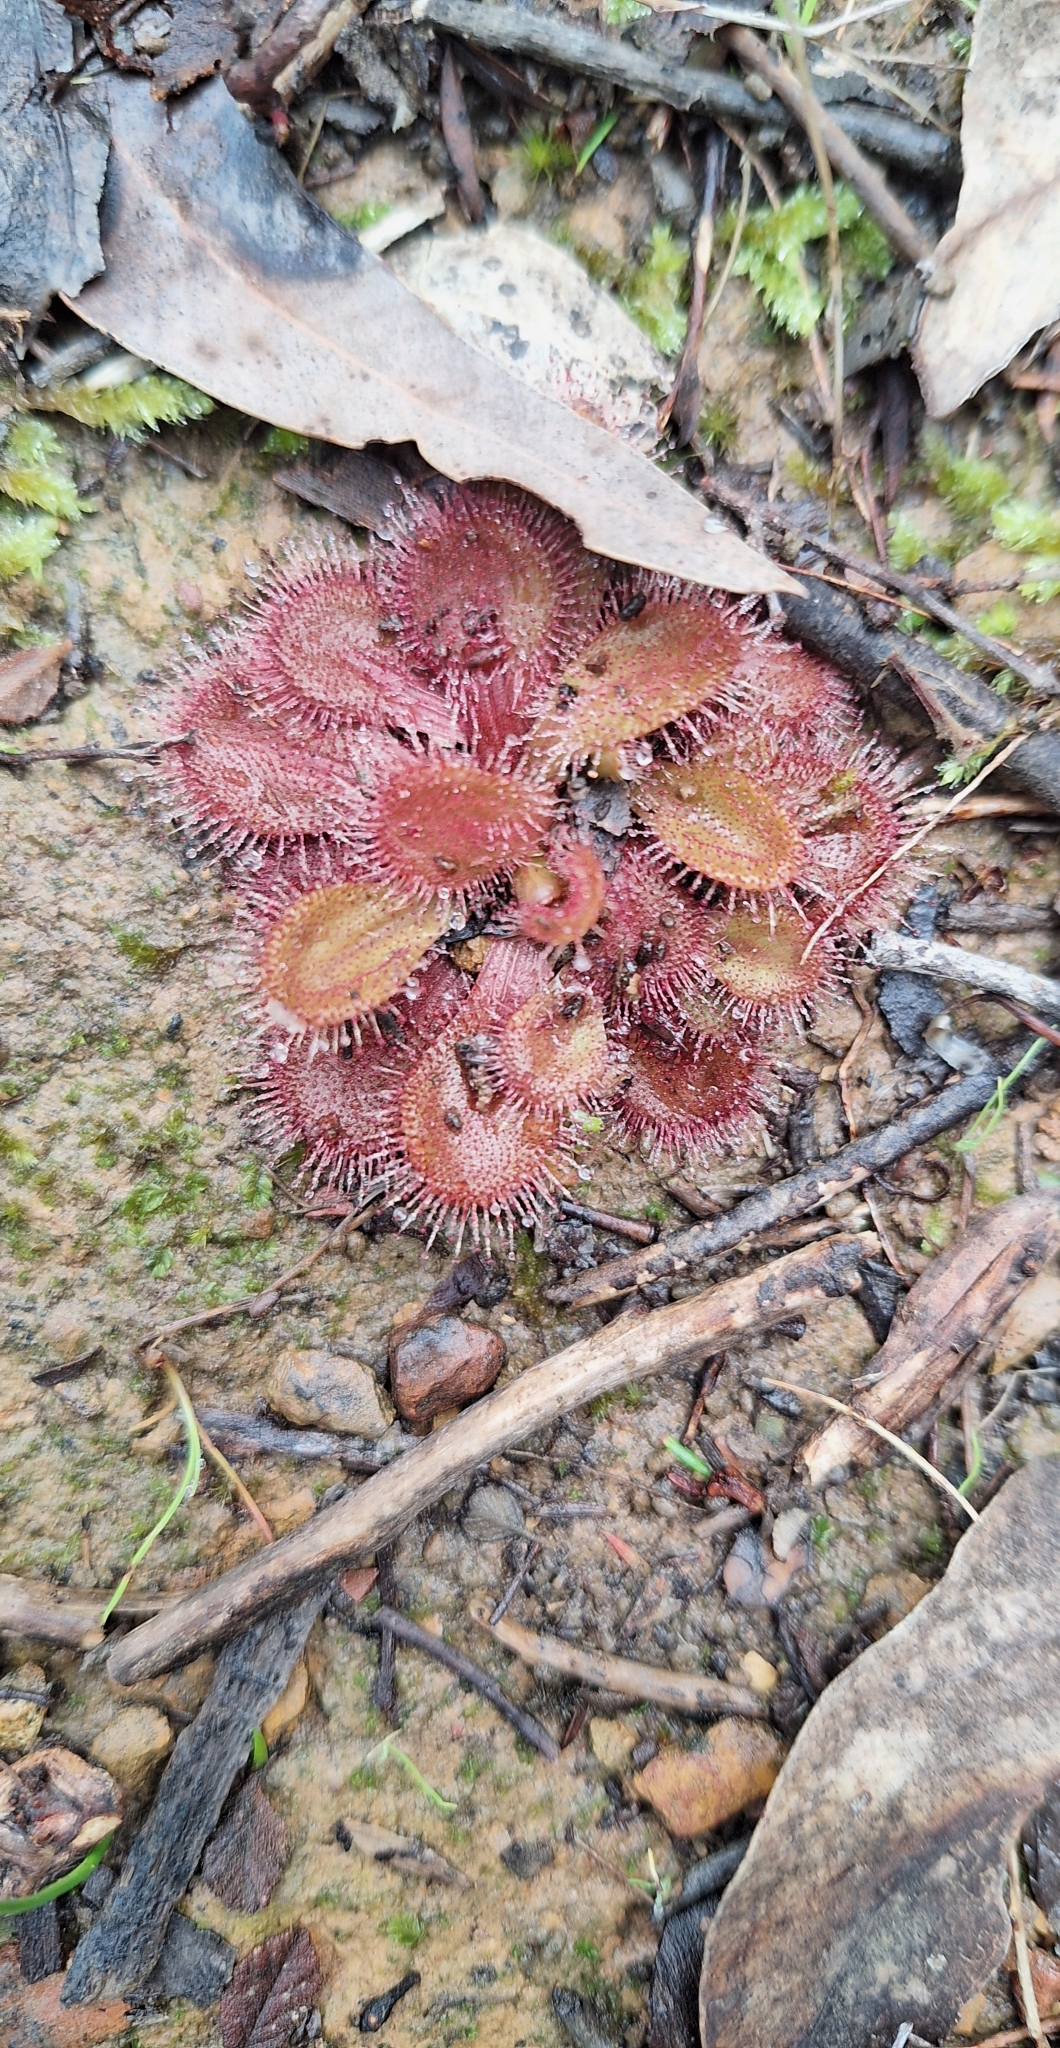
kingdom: Plantae
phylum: Tracheophyta
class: Magnoliopsida
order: Caryophyllales
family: Droseraceae
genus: Drosera
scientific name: Drosera whittakeri
